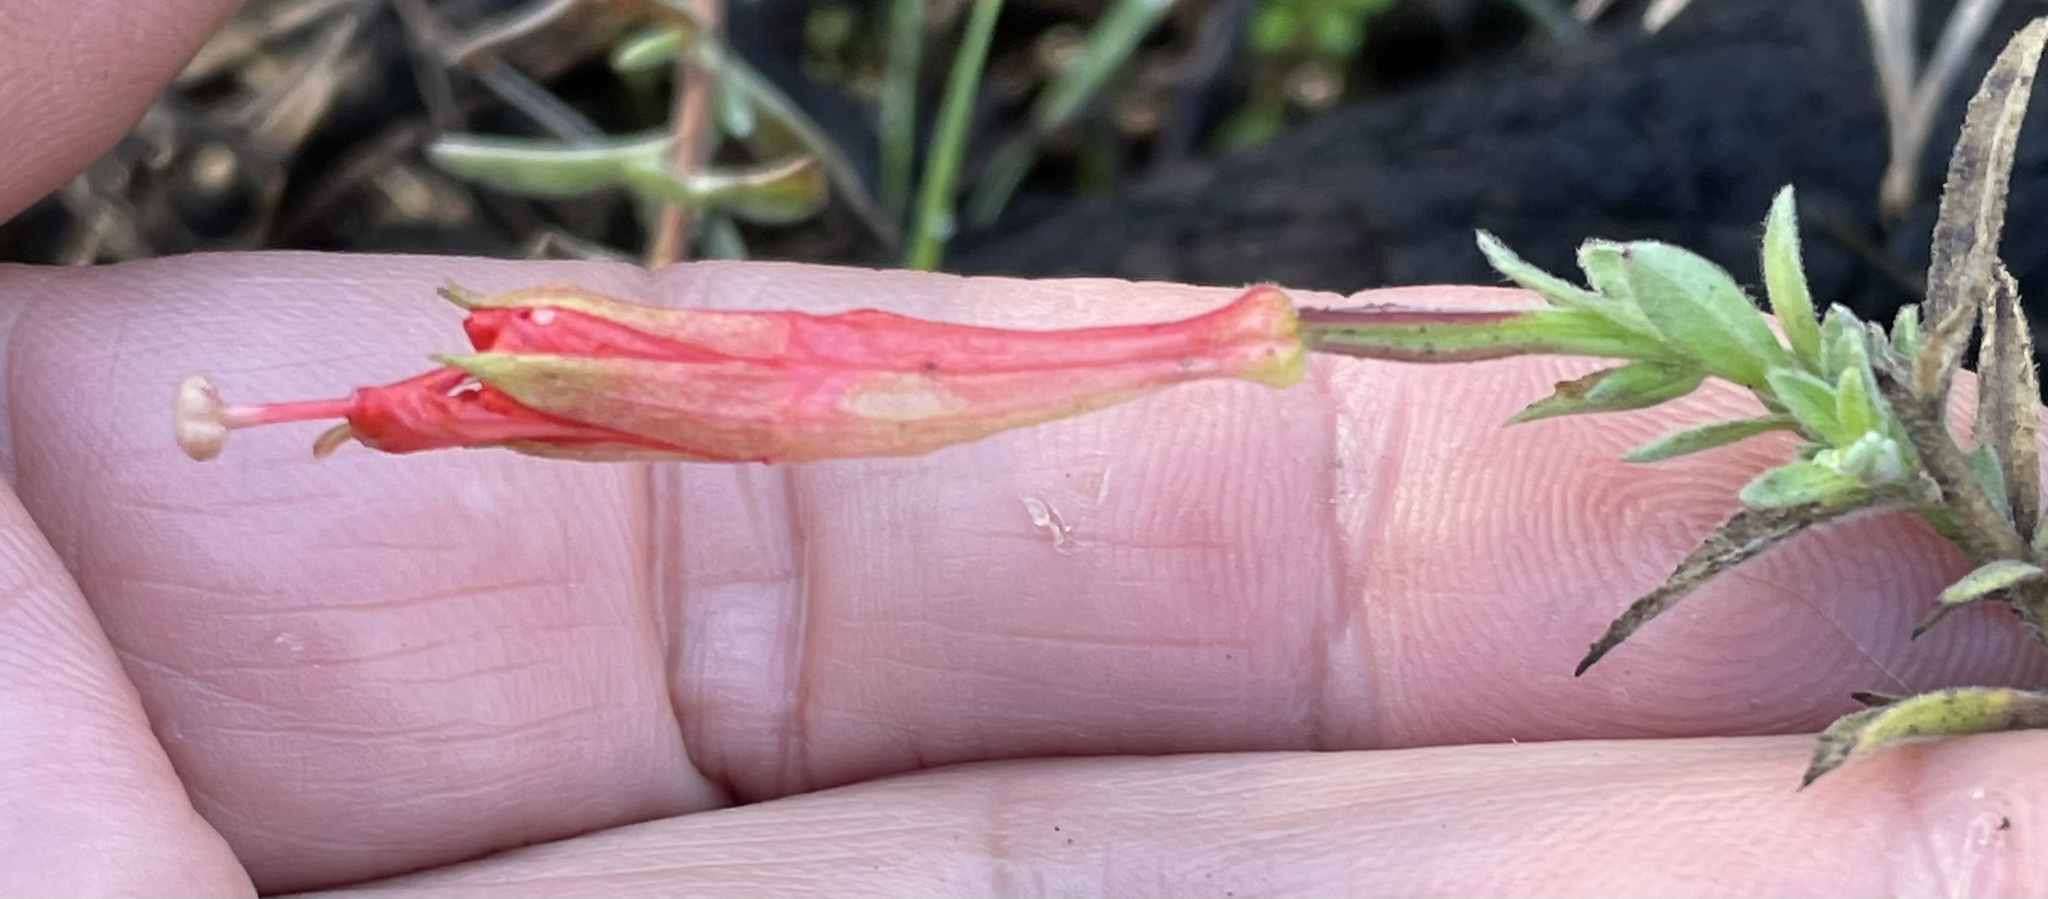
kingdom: Plantae
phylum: Tracheophyta
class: Magnoliopsida
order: Myrtales
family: Onagraceae
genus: Epilobium
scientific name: Epilobium canum
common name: California-fuchsia
